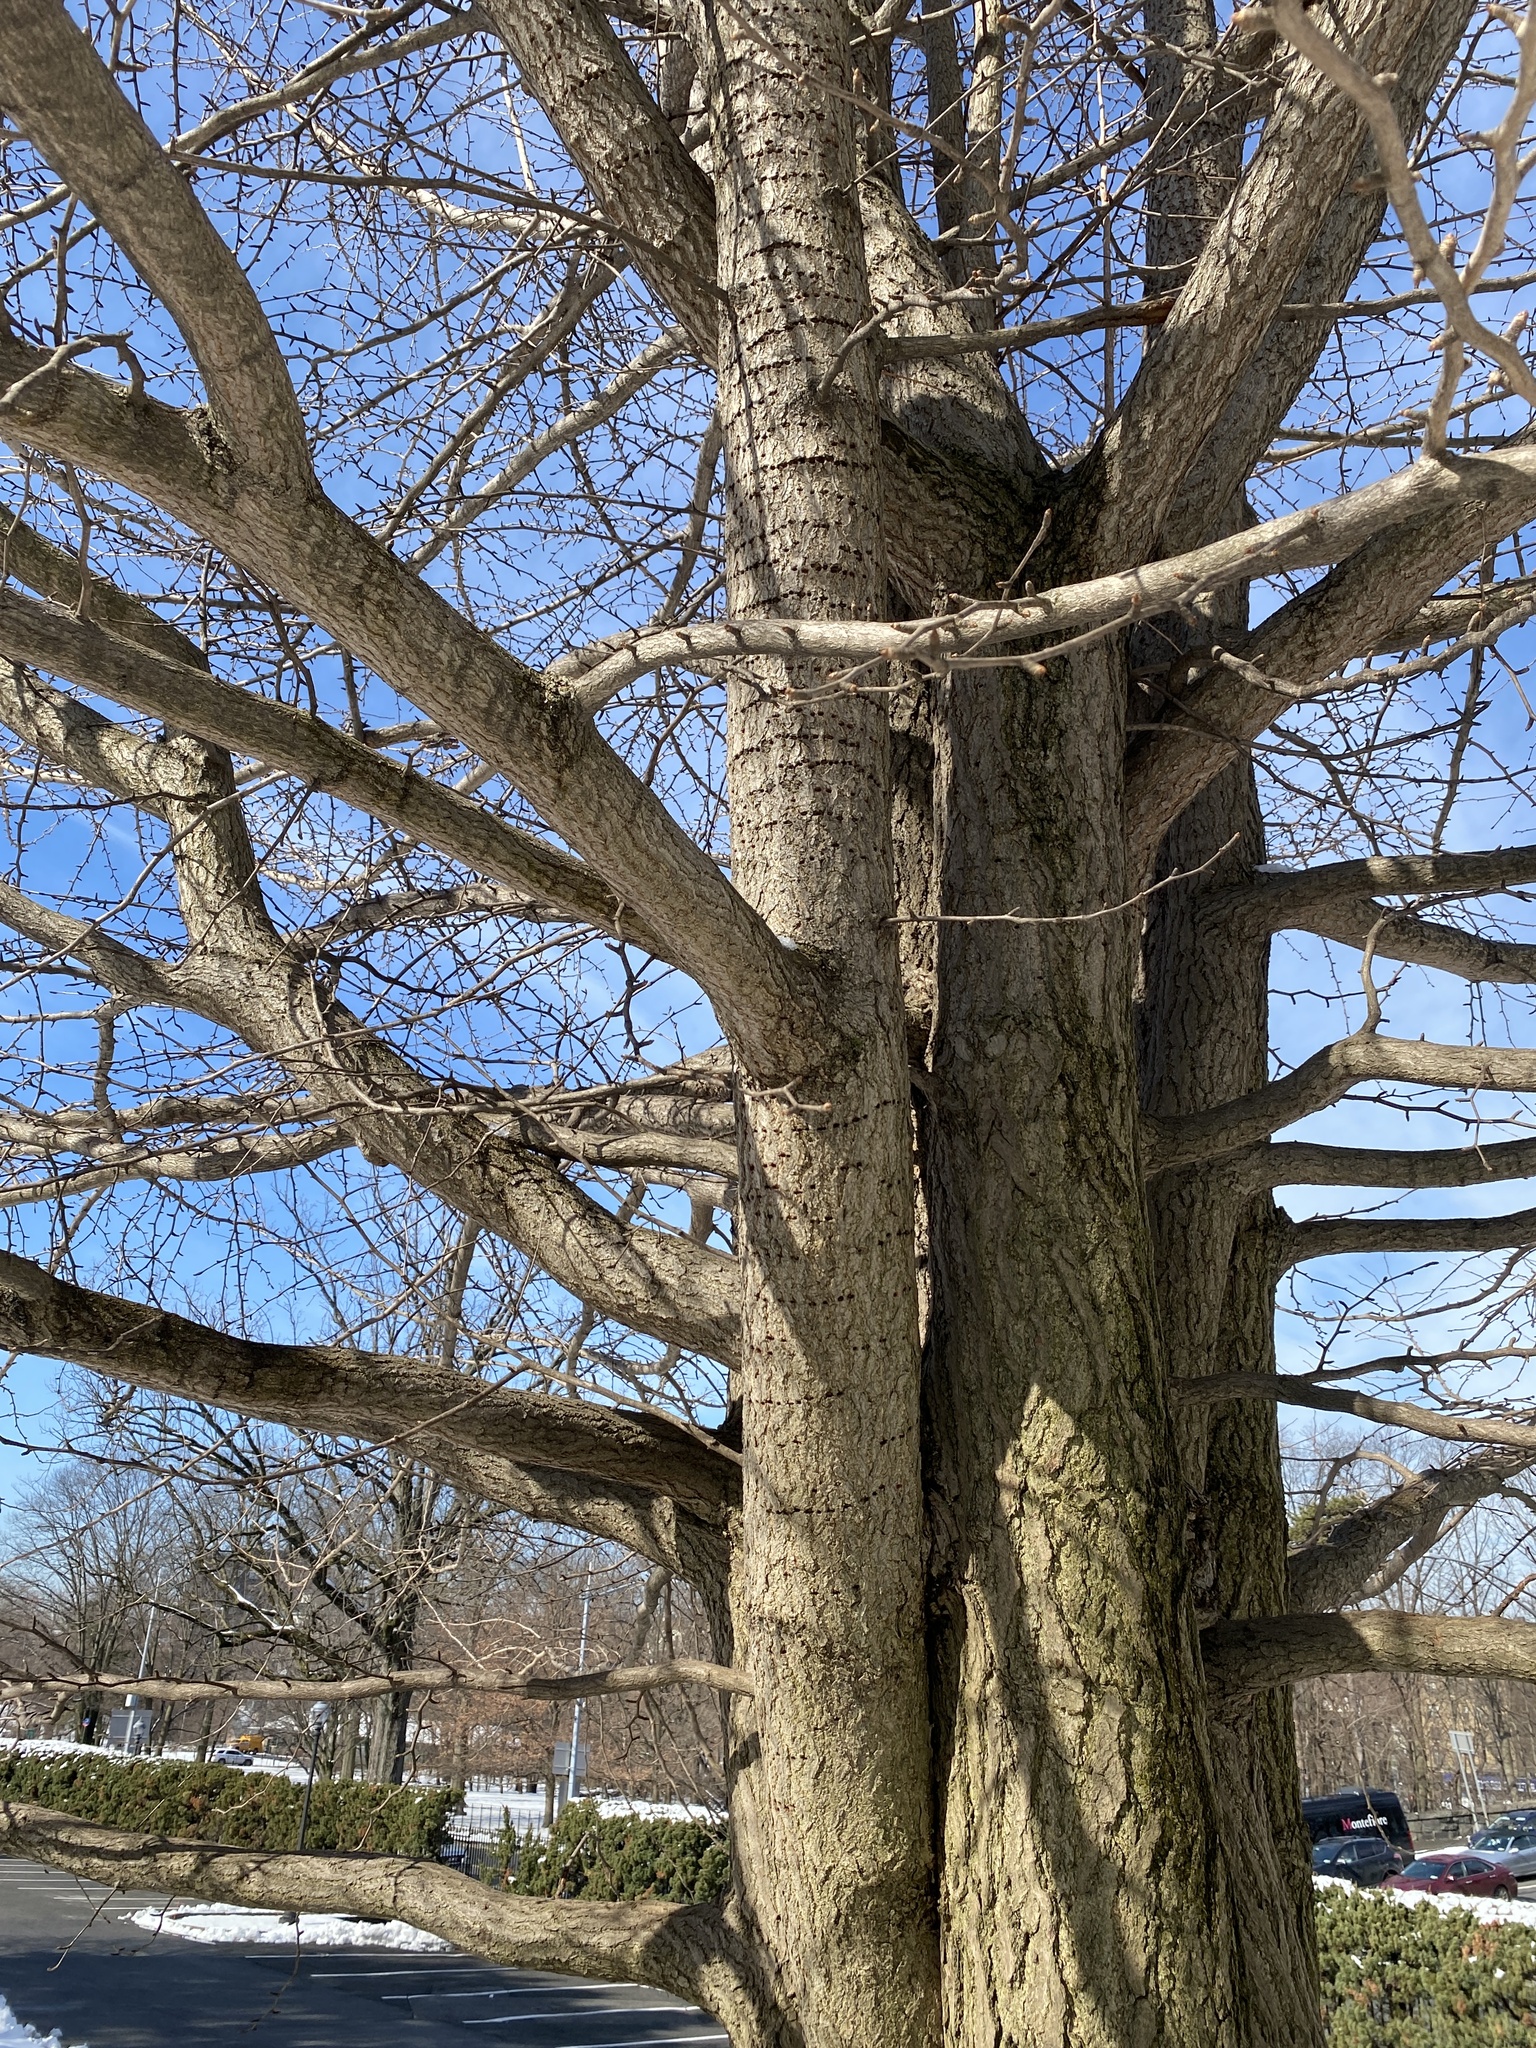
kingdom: Animalia
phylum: Chordata
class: Aves
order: Piciformes
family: Picidae
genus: Sphyrapicus
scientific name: Sphyrapicus varius
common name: Yellow-bellied sapsucker
